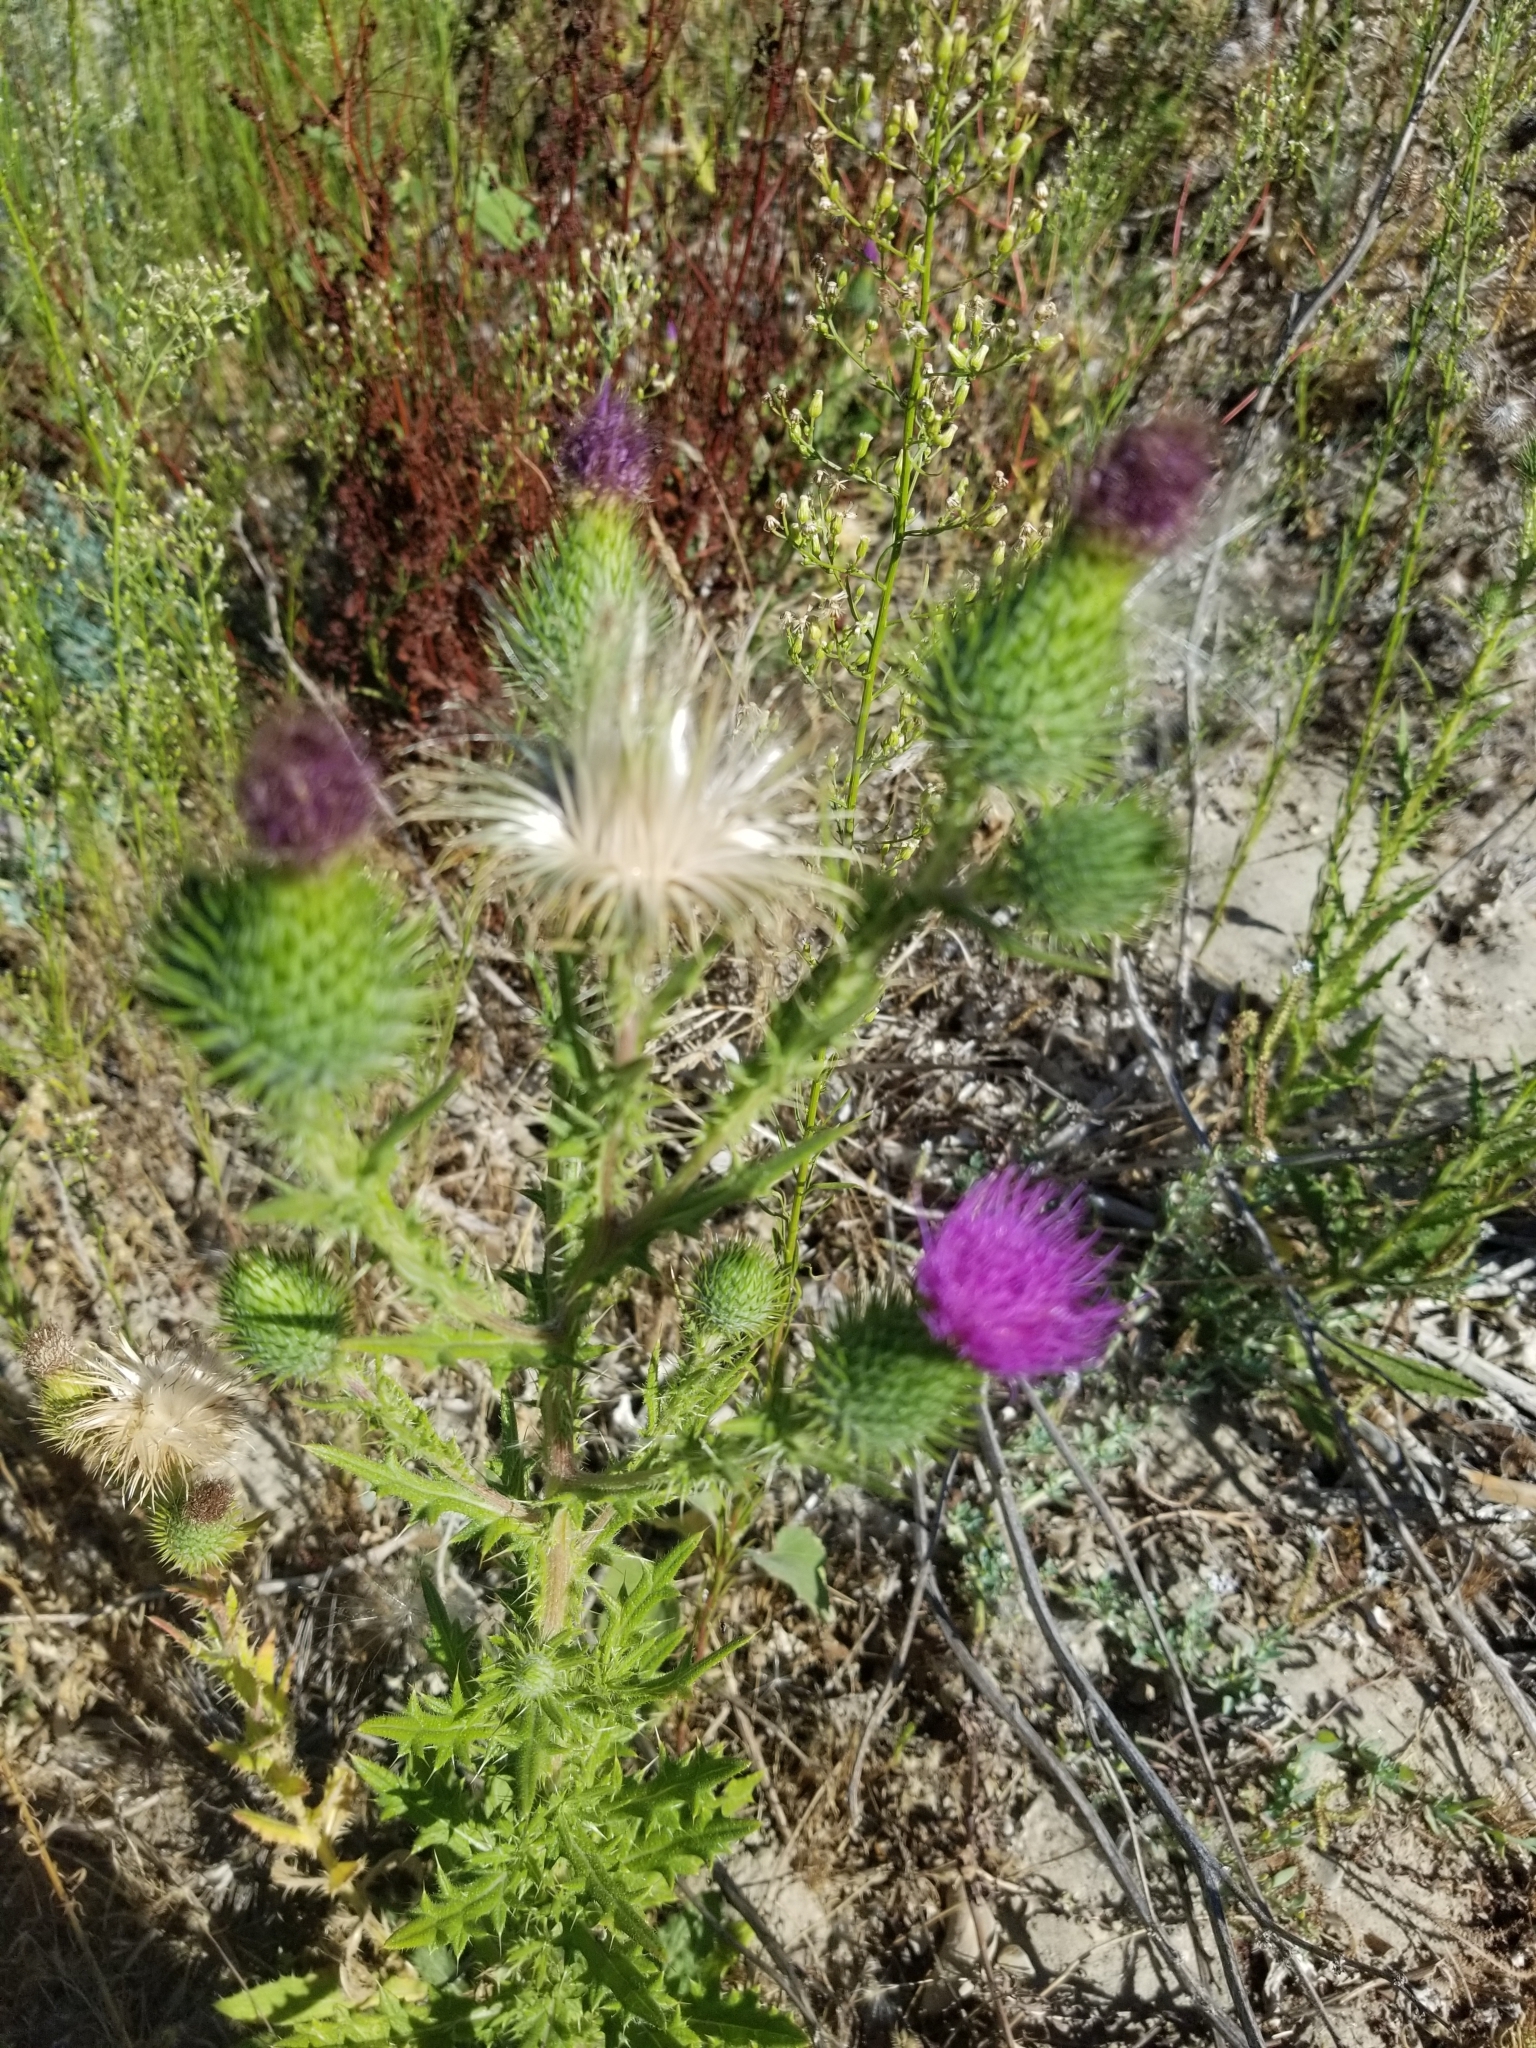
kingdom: Plantae
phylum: Tracheophyta
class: Magnoliopsida
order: Asterales
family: Asteraceae
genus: Cirsium
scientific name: Cirsium vulgare
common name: Bull thistle
